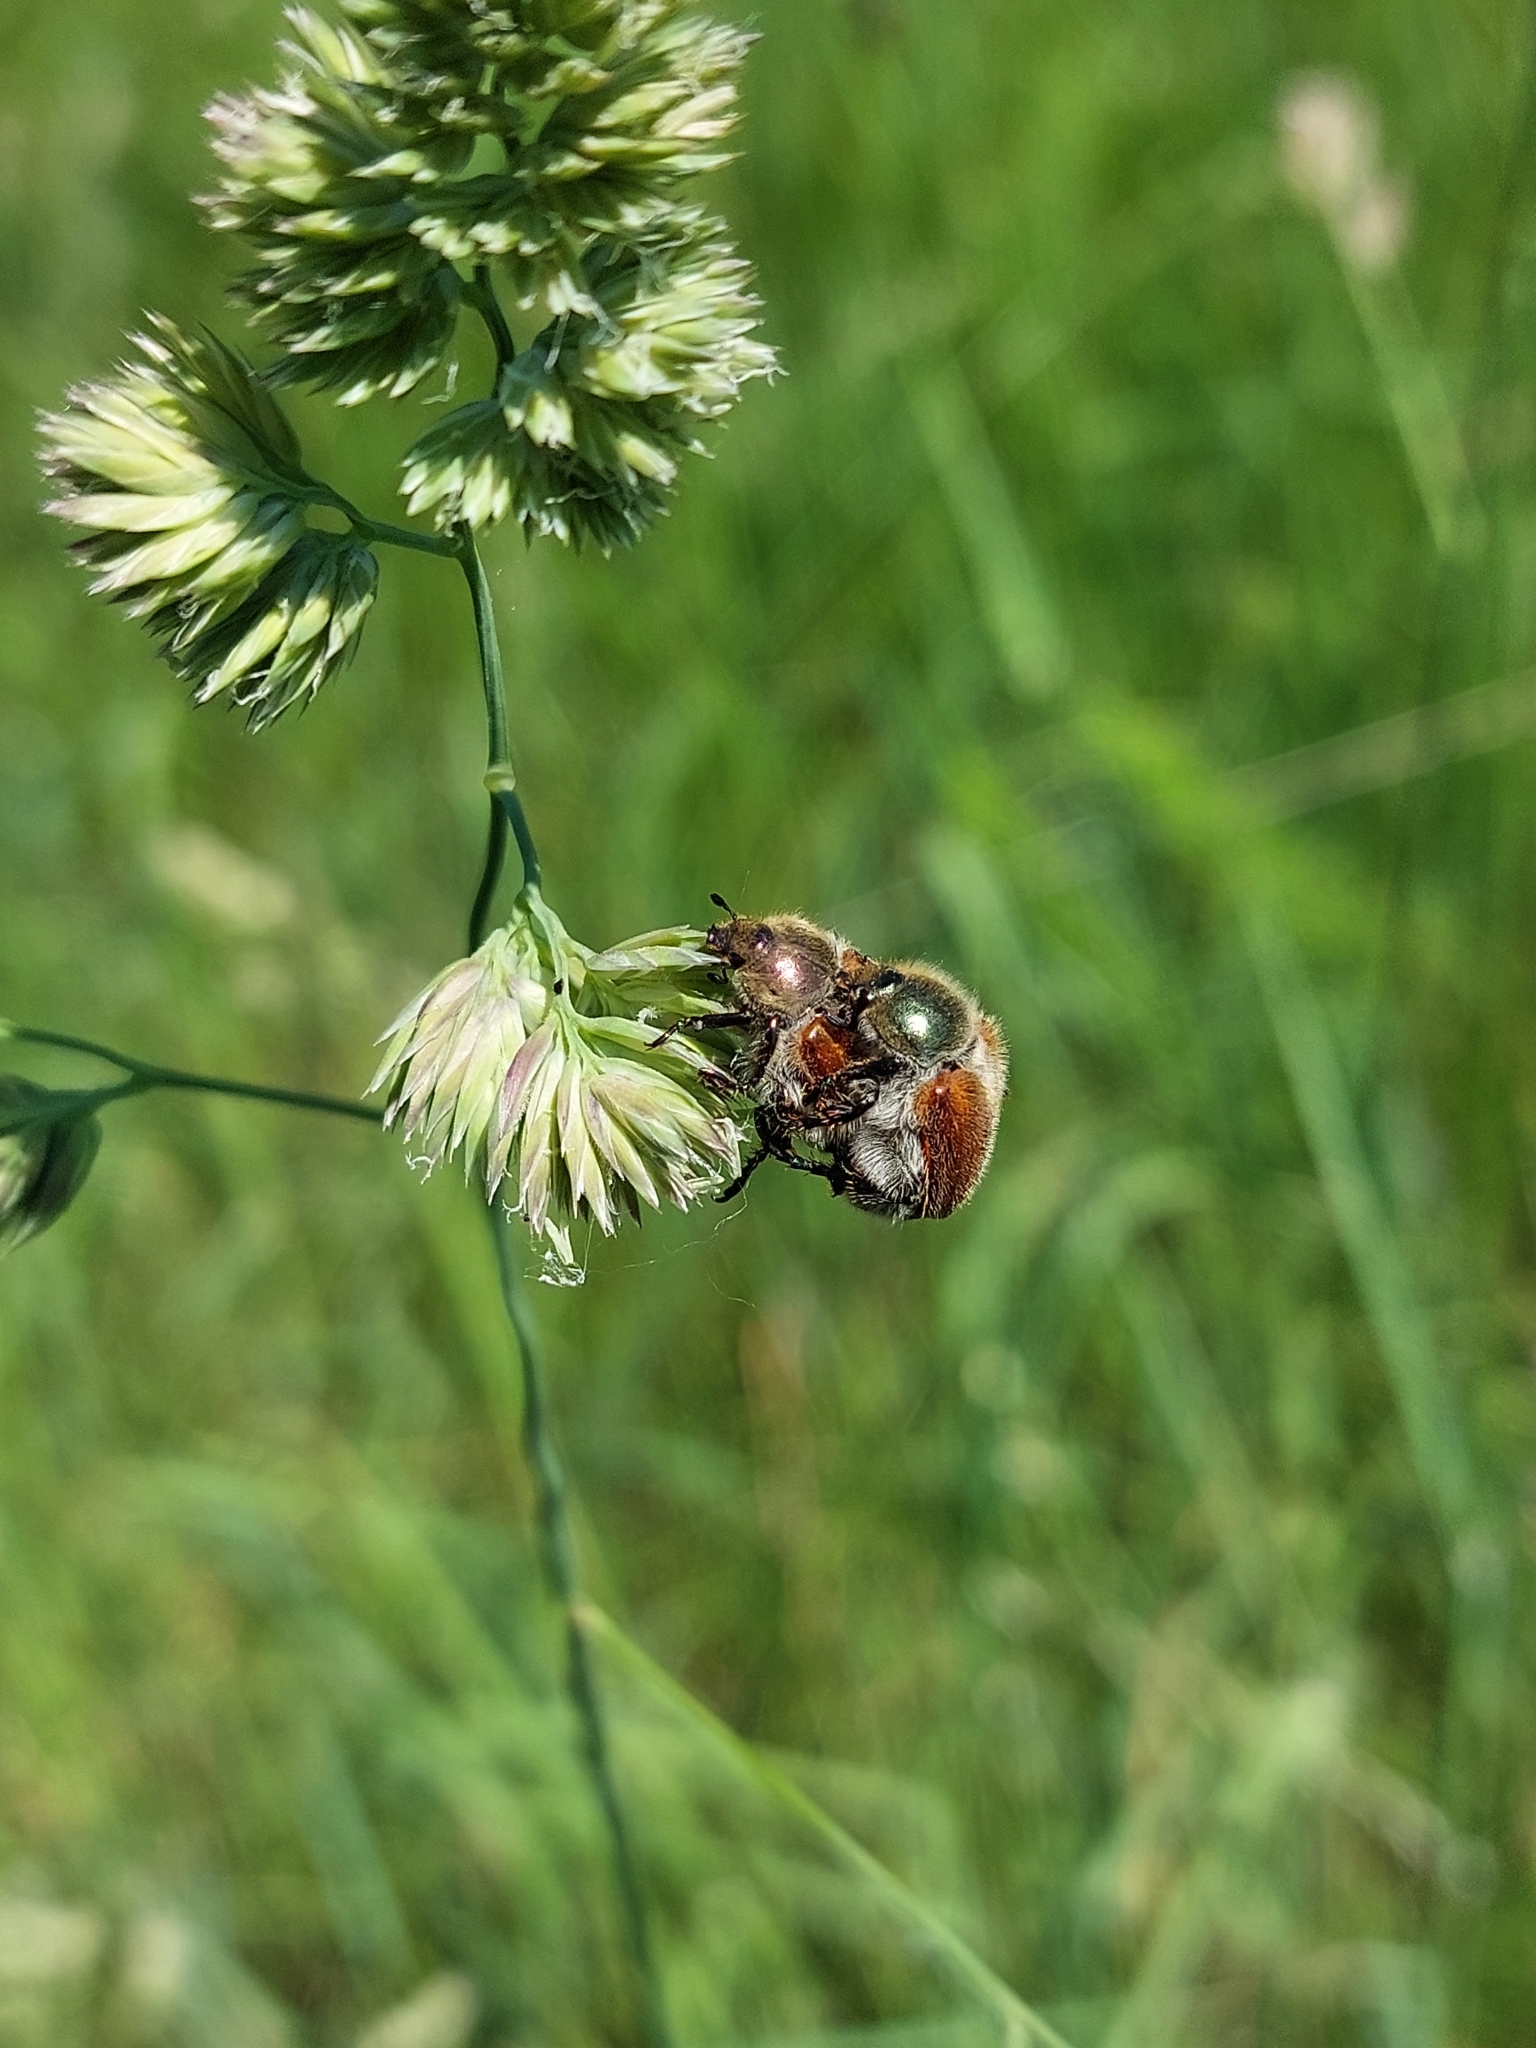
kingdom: Animalia
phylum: Arthropoda
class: Insecta
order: Coleoptera
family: Scarabaeidae
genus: Chaetopteroplia
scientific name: Chaetopteroplia segetum
